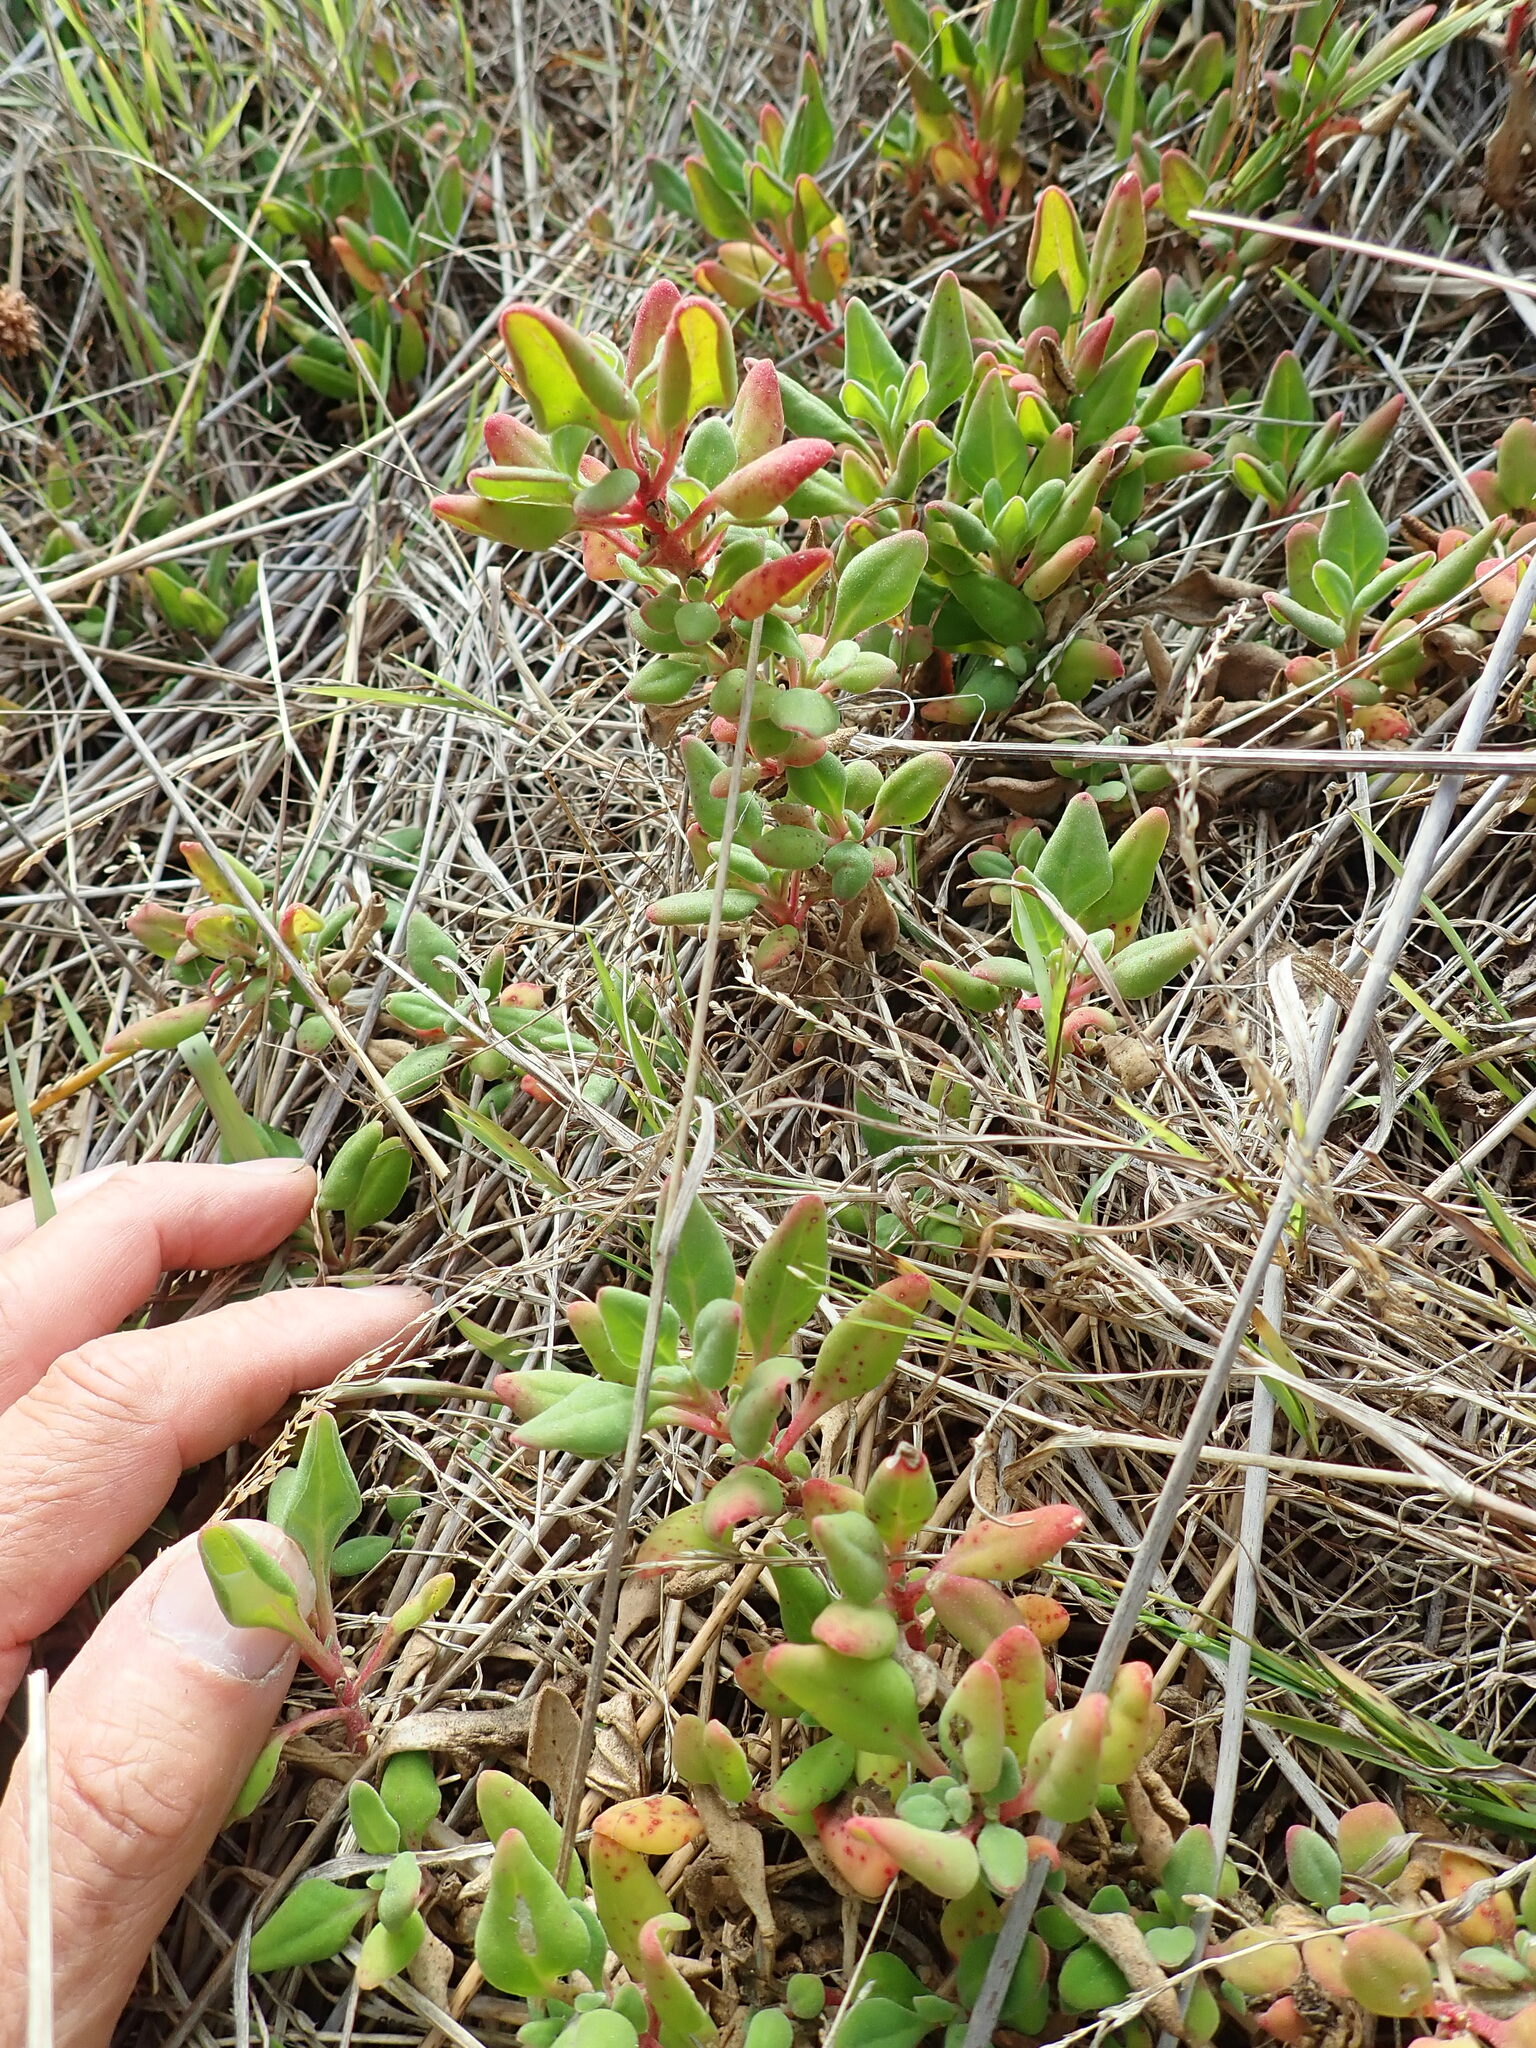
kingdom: Plantae
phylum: Tracheophyta
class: Magnoliopsida
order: Caryophyllales
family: Aizoaceae
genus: Tetragonia
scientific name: Tetragonia implexicoma
